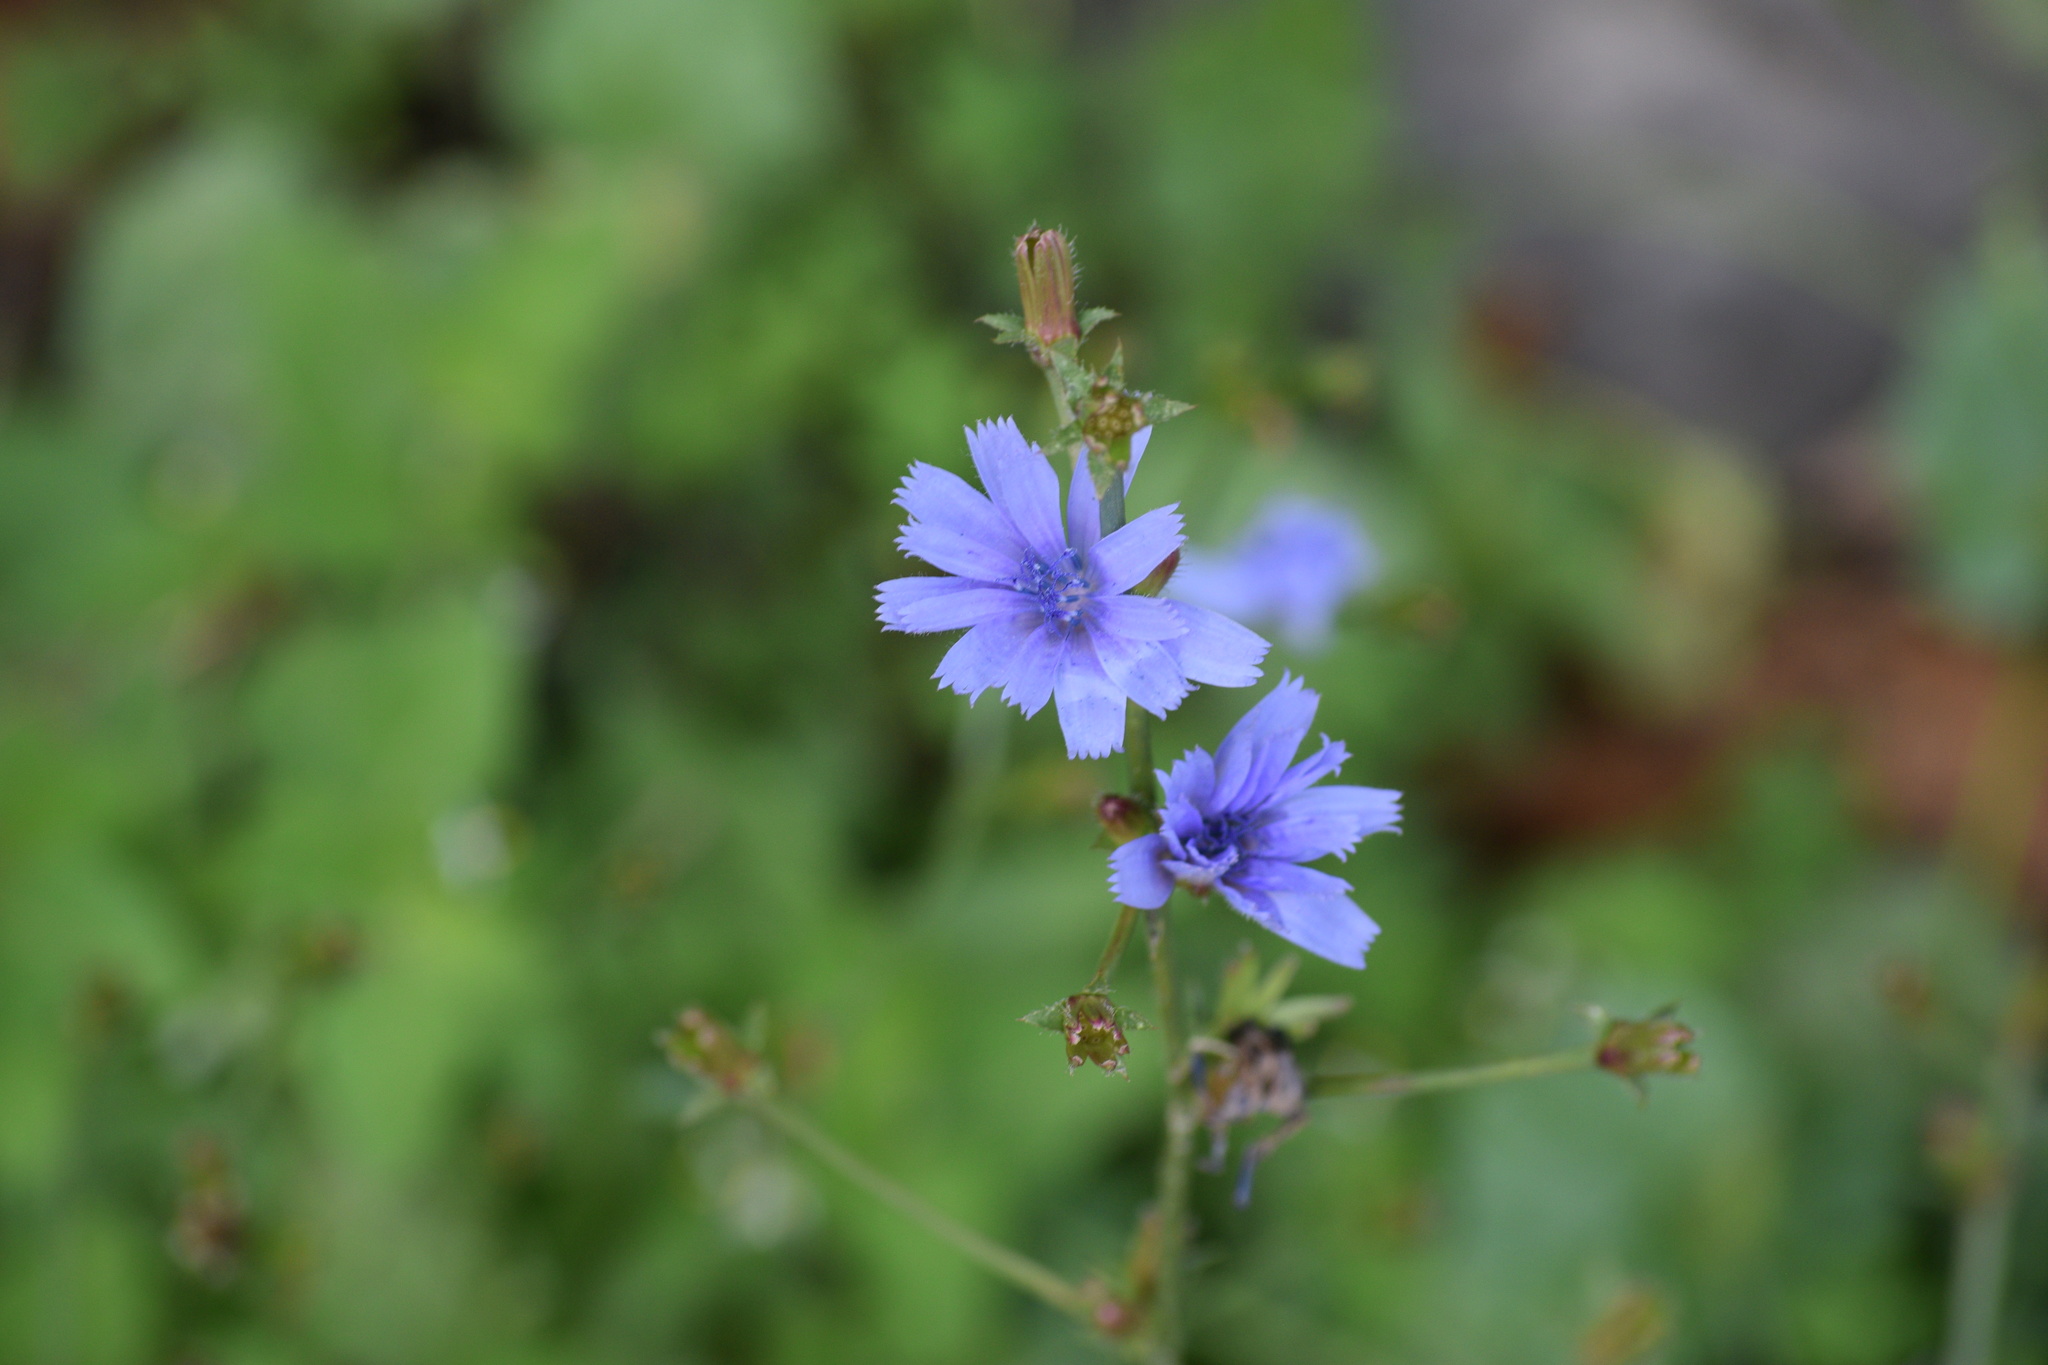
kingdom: Plantae
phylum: Tracheophyta
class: Magnoliopsida
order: Asterales
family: Asteraceae
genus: Cichorium
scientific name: Cichorium intybus
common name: Chicory
